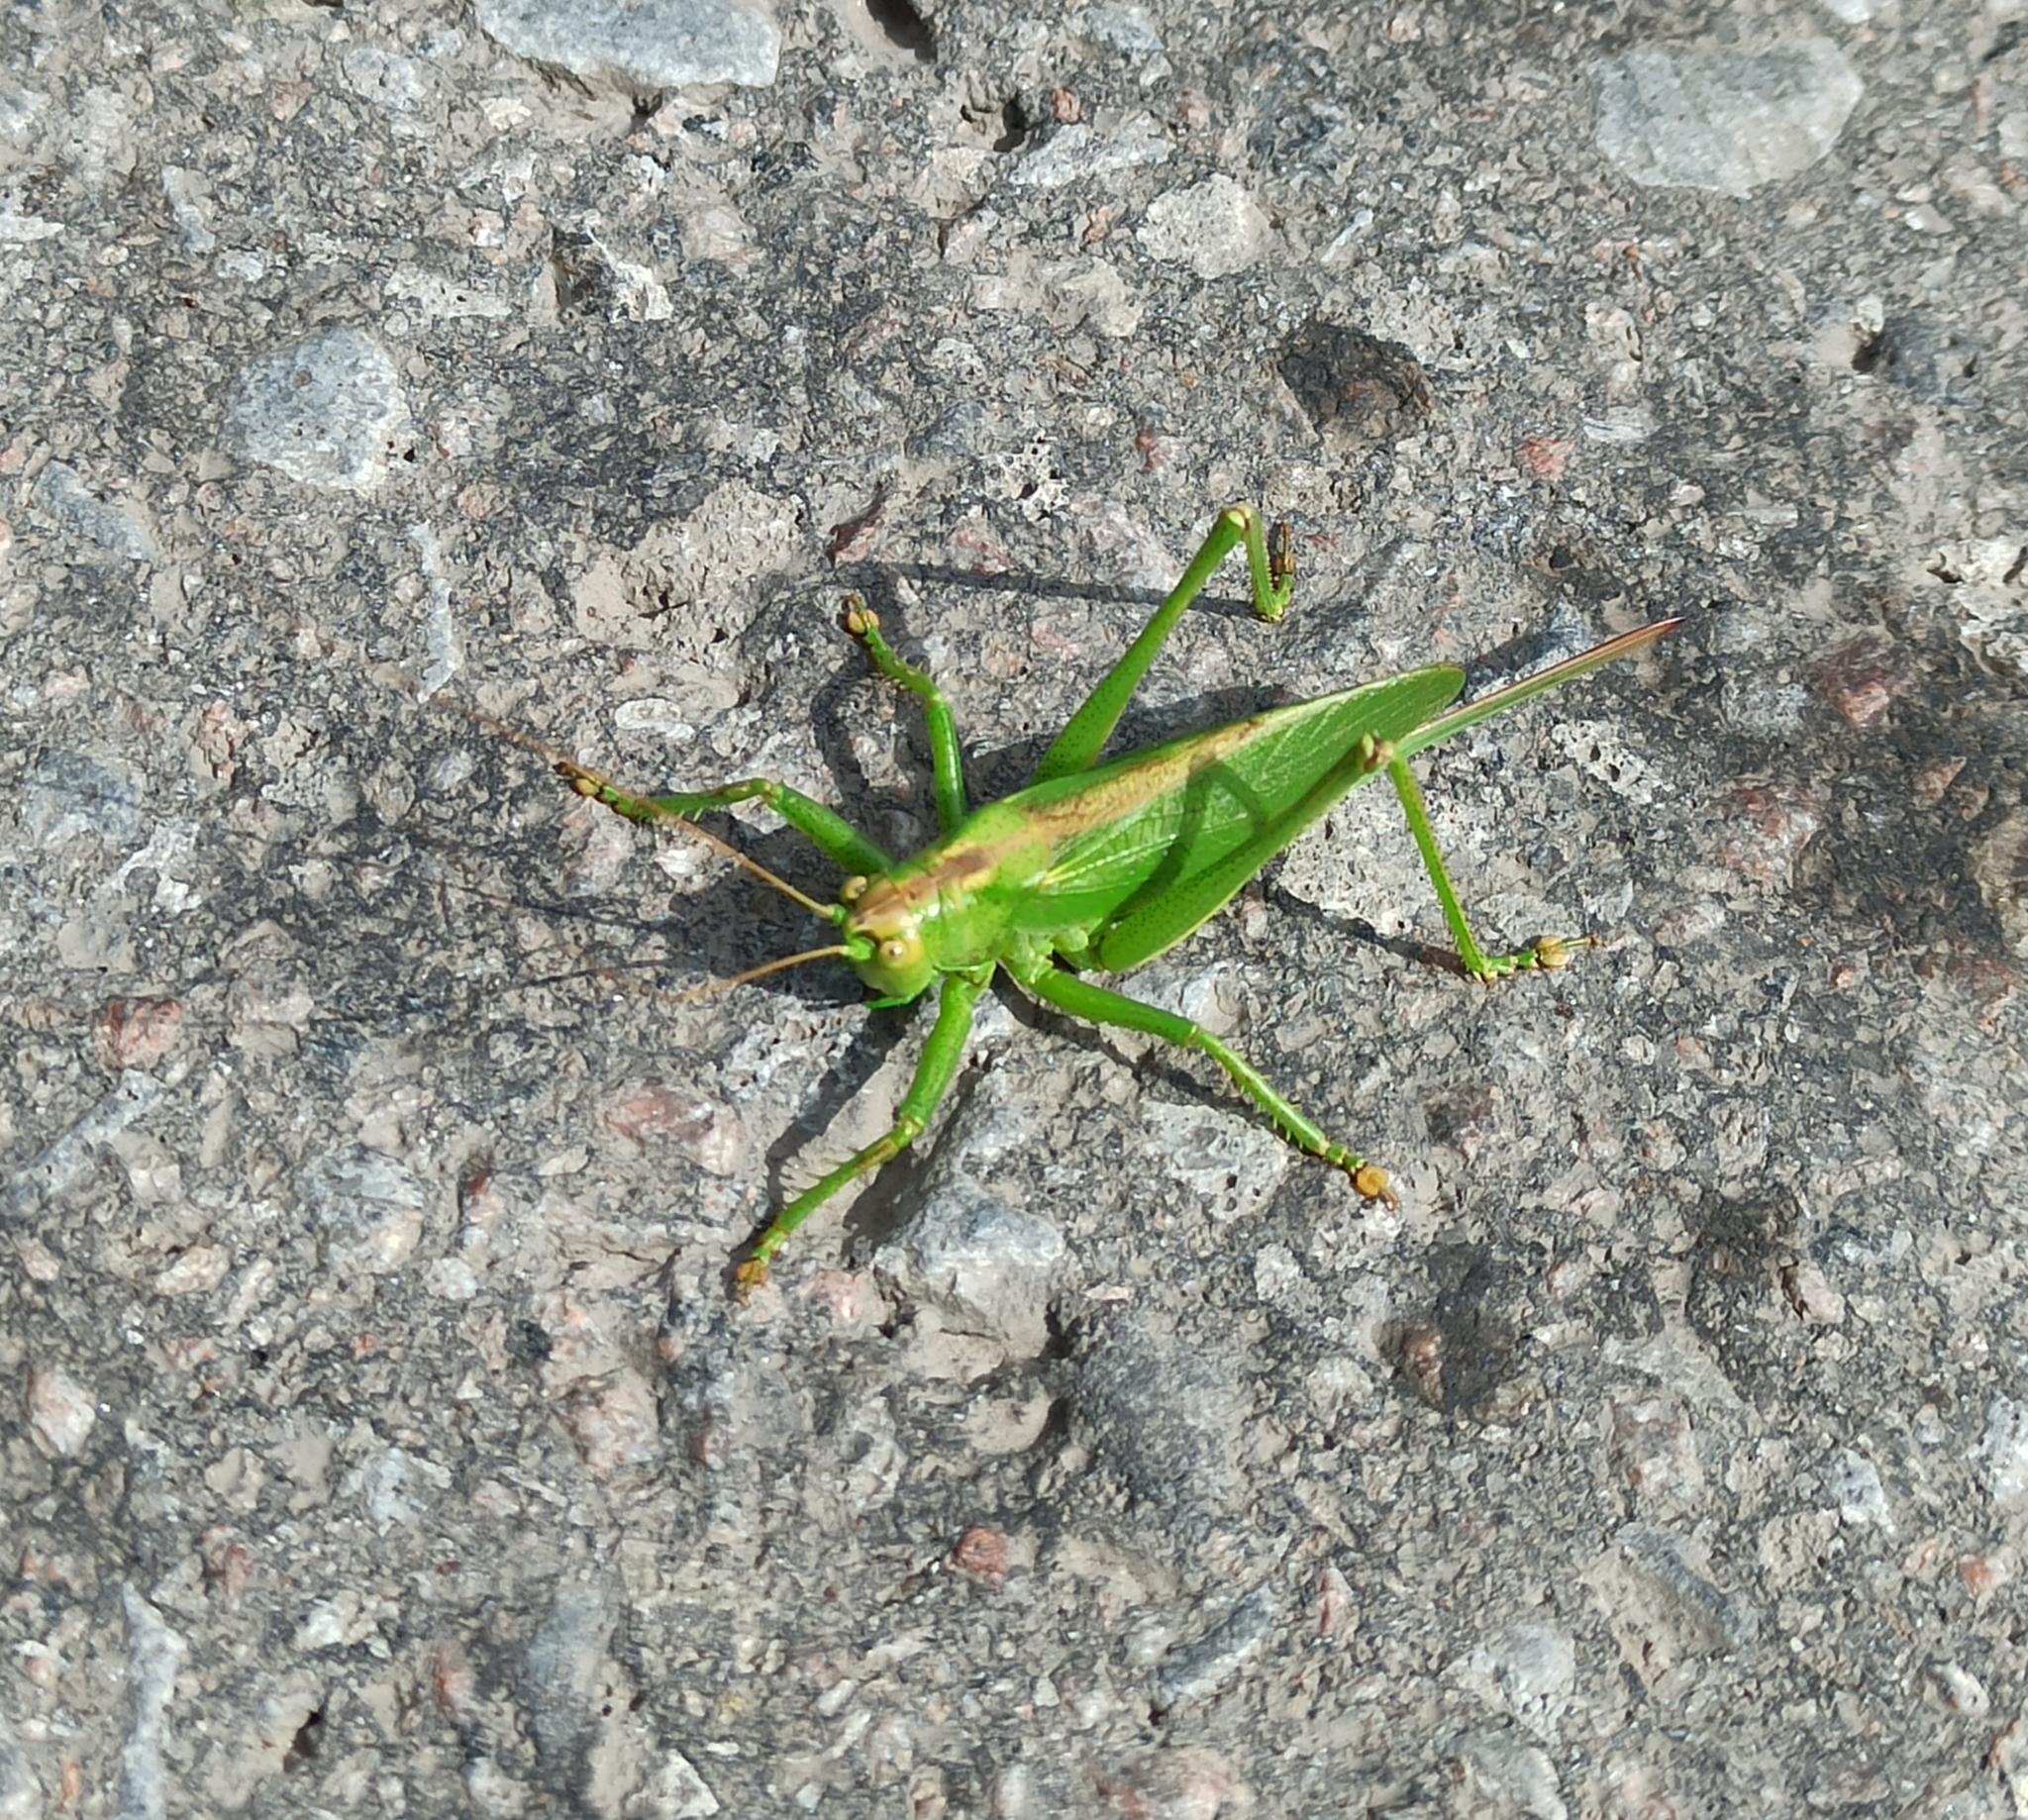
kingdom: Animalia
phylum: Arthropoda
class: Insecta
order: Orthoptera
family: Tettigoniidae
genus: Tettigonia
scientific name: Tettigonia cantans
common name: Upland green bush-cricket
